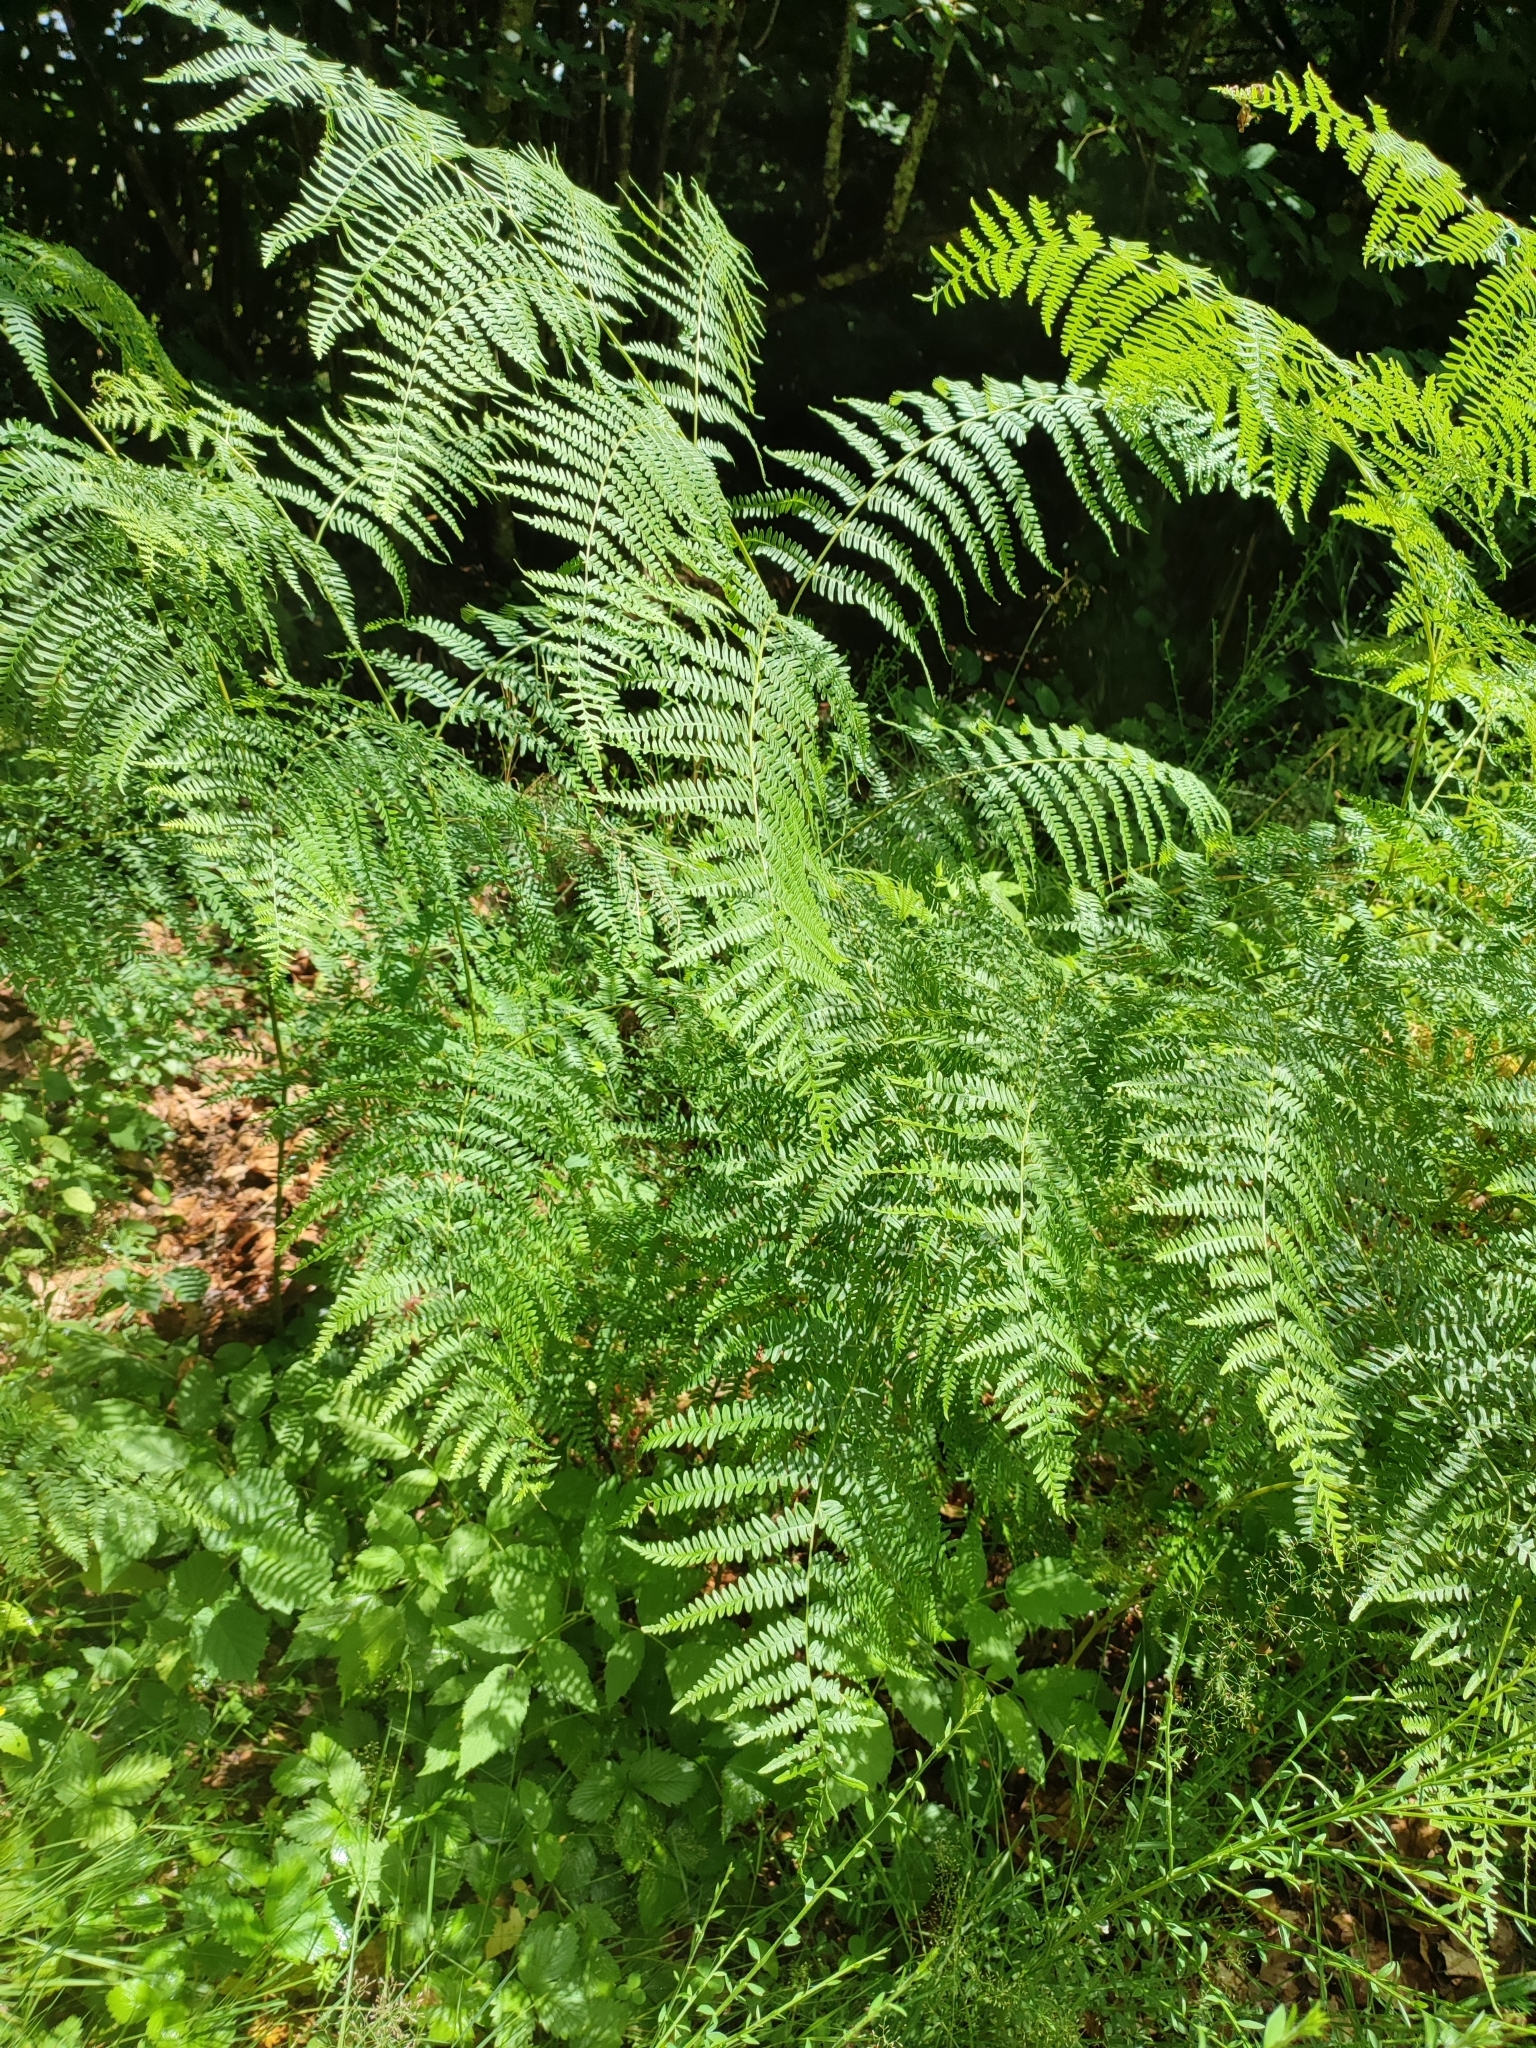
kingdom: Plantae
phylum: Tracheophyta
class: Polypodiopsida
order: Polypodiales
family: Dennstaedtiaceae
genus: Pteridium
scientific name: Pteridium aquilinum
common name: Bracken
